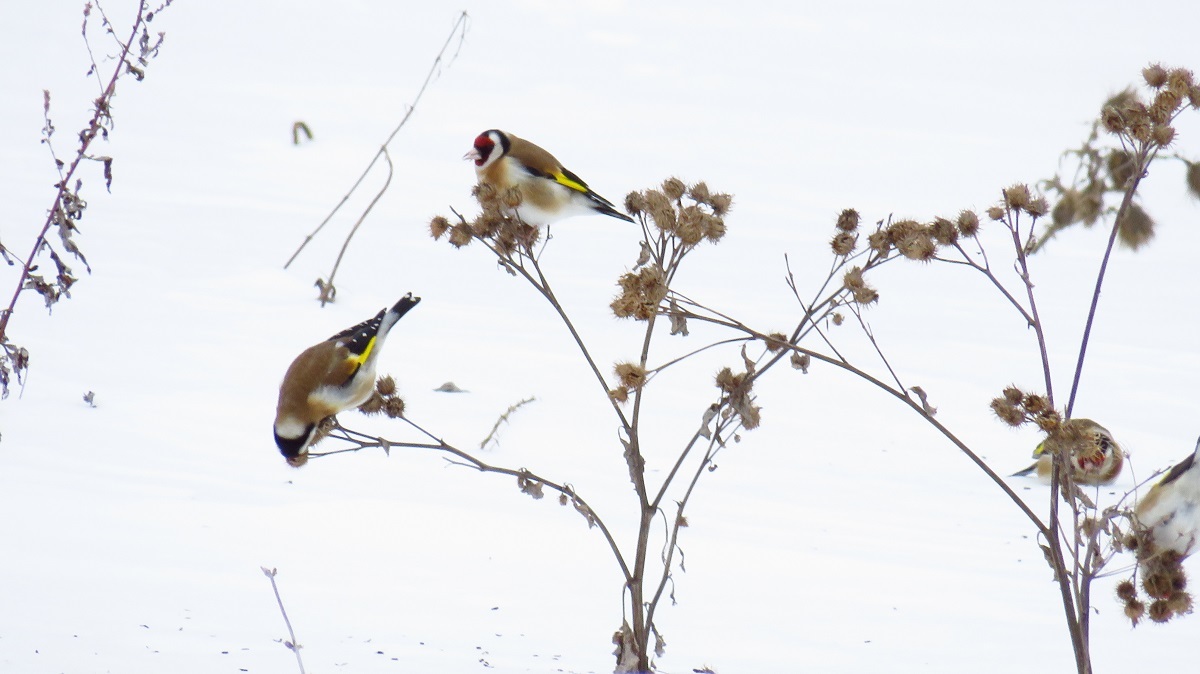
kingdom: Animalia
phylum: Chordata
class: Aves
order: Passeriformes
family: Fringillidae
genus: Carduelis
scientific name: Carduelis carduelis
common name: European goldfinch
